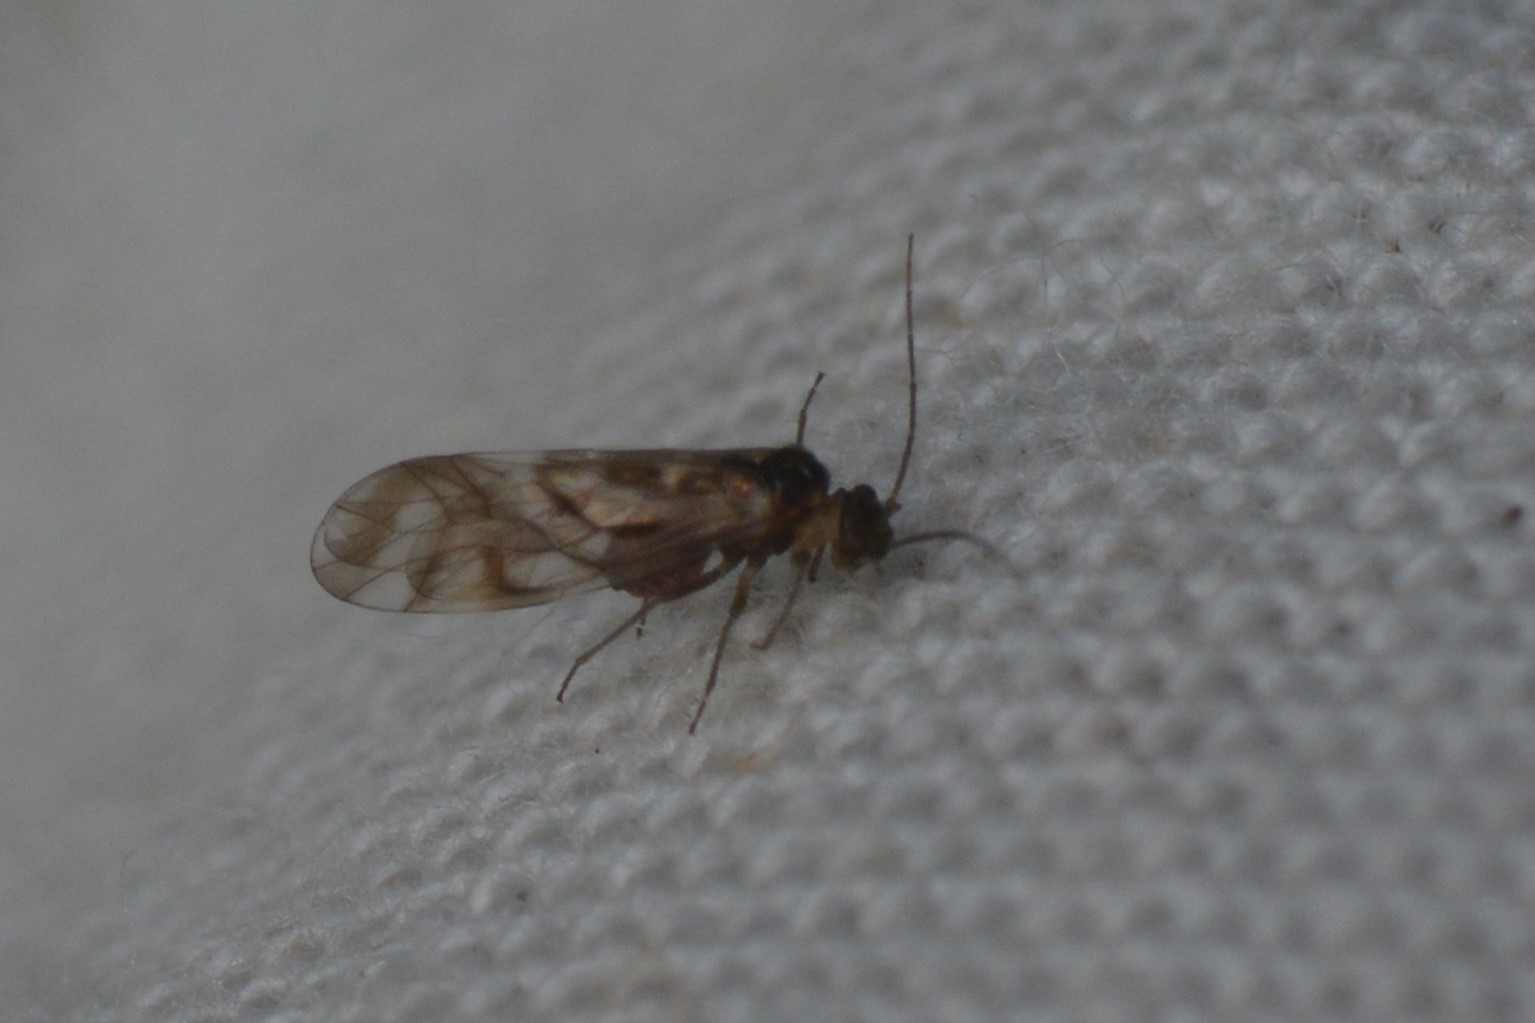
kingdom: Animalia
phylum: Arthropoda
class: Insecta
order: Psocodea
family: Stenopsocidae
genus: Graphopsocus
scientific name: Graphopsocus cruciatus
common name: Lizard bark louse
